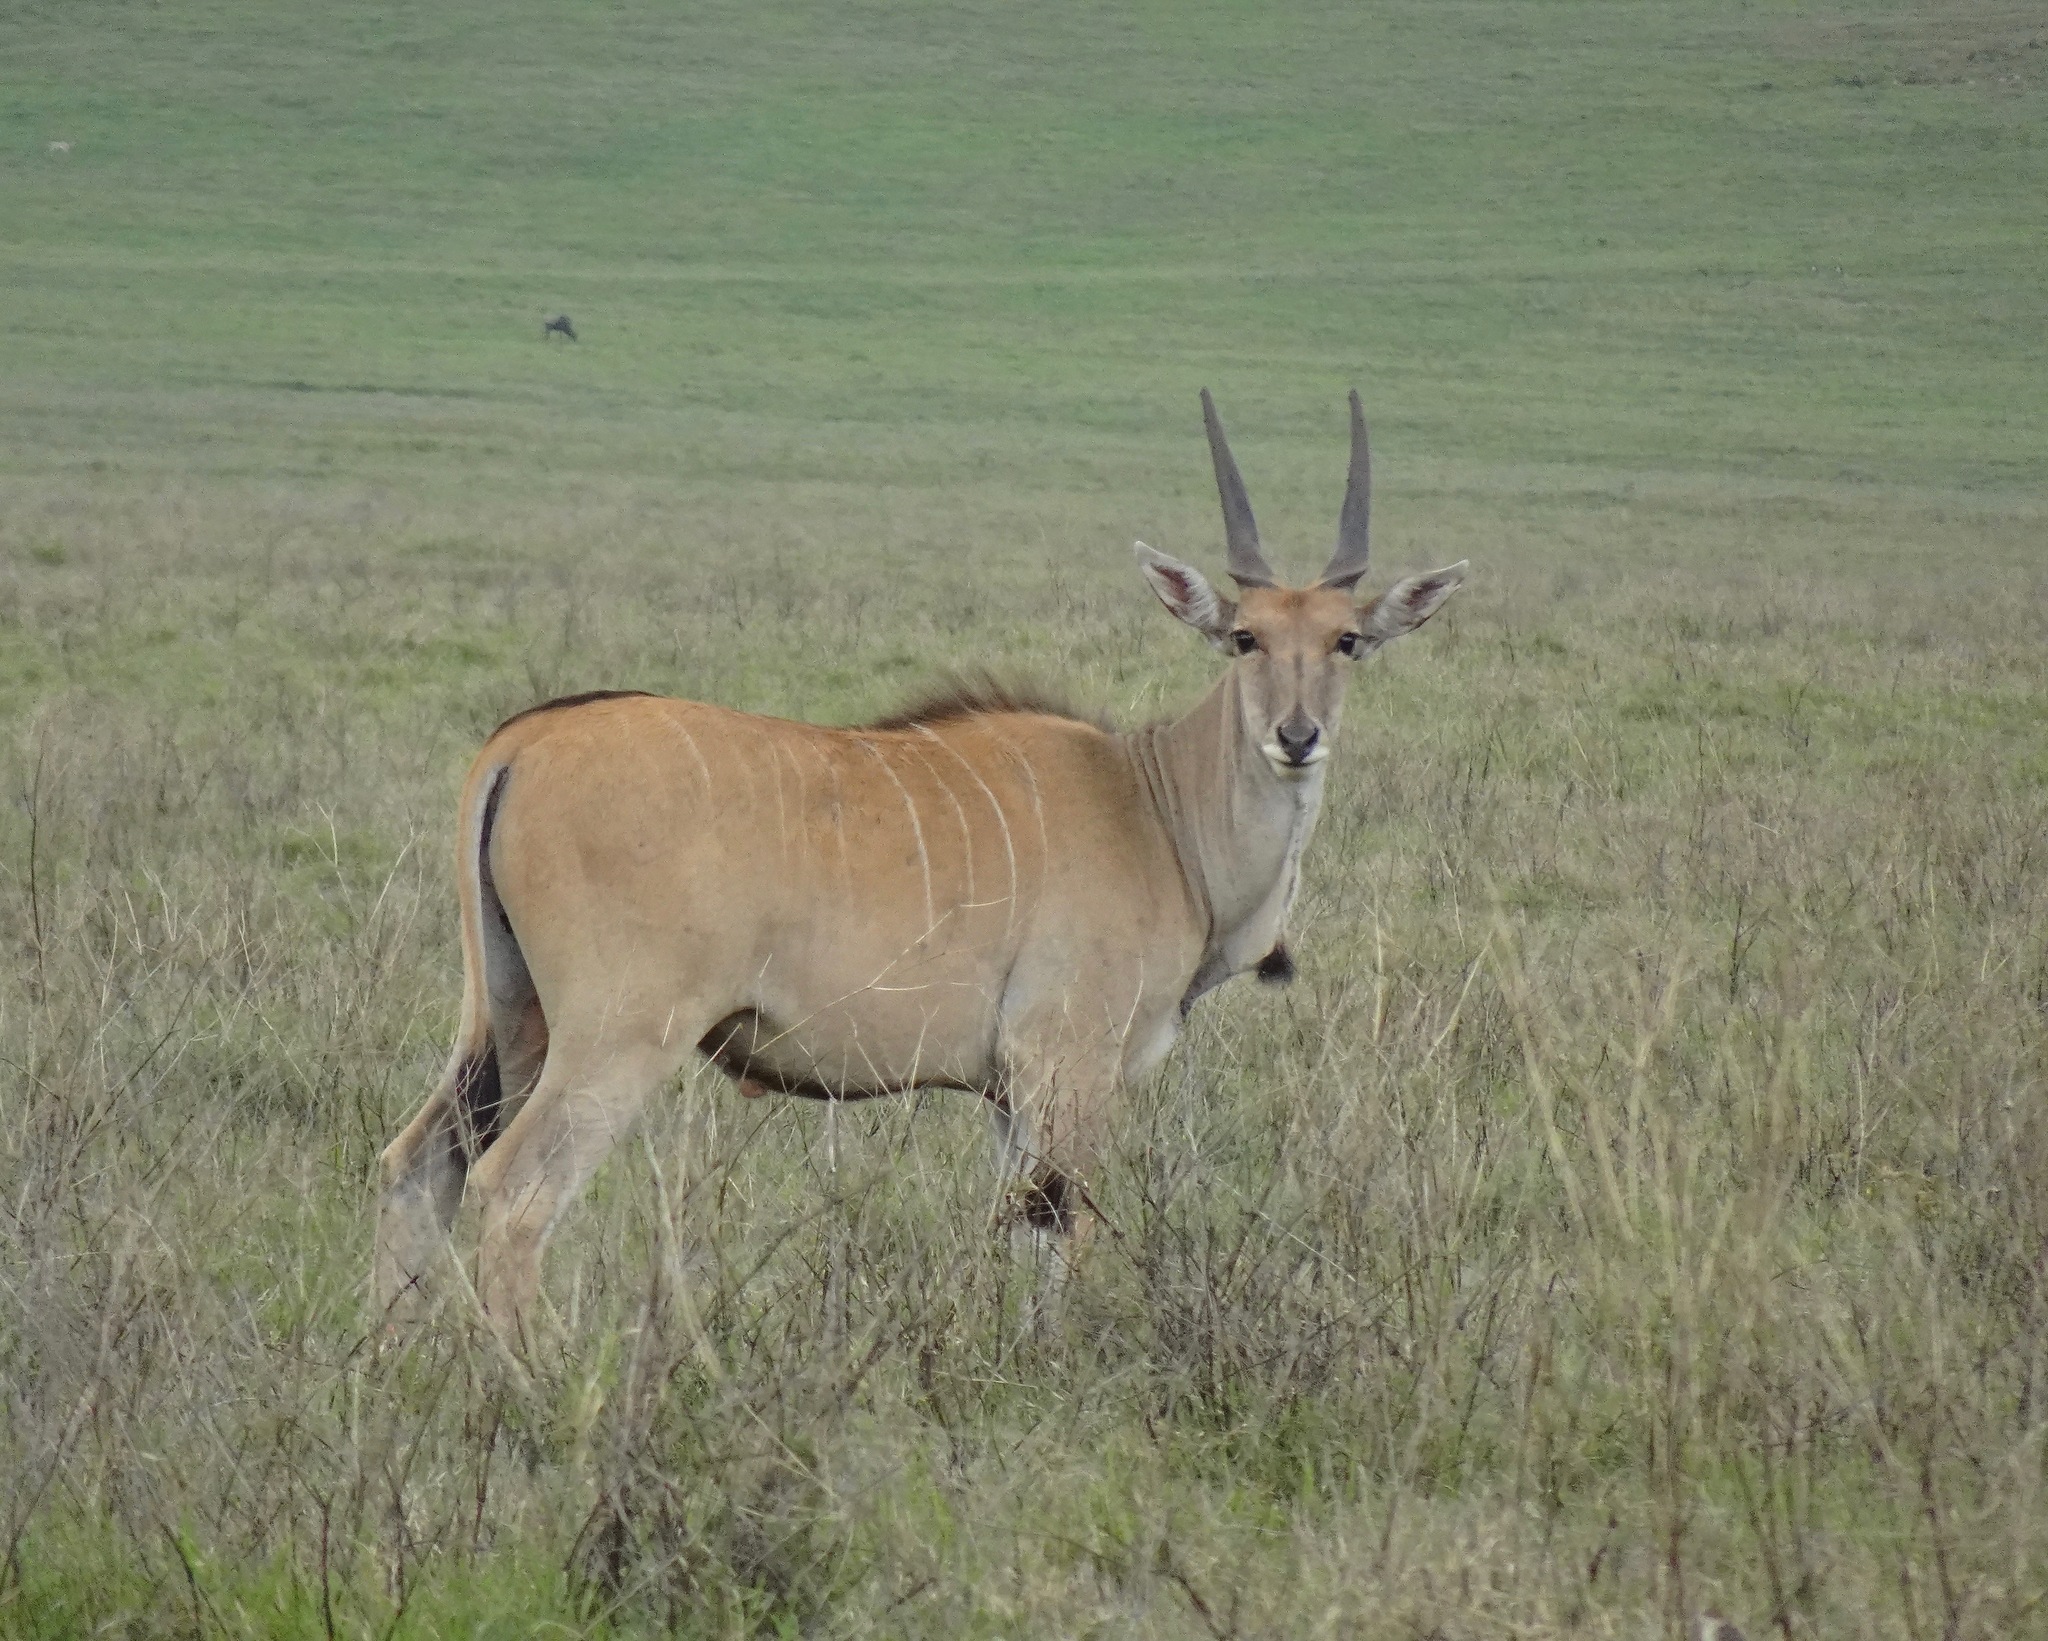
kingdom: Animalia
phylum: Chordata
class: Mammalia
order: Artiodactyla
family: Bovidae
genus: Taurotragus
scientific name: Taurotragus oryx
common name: Common eland
